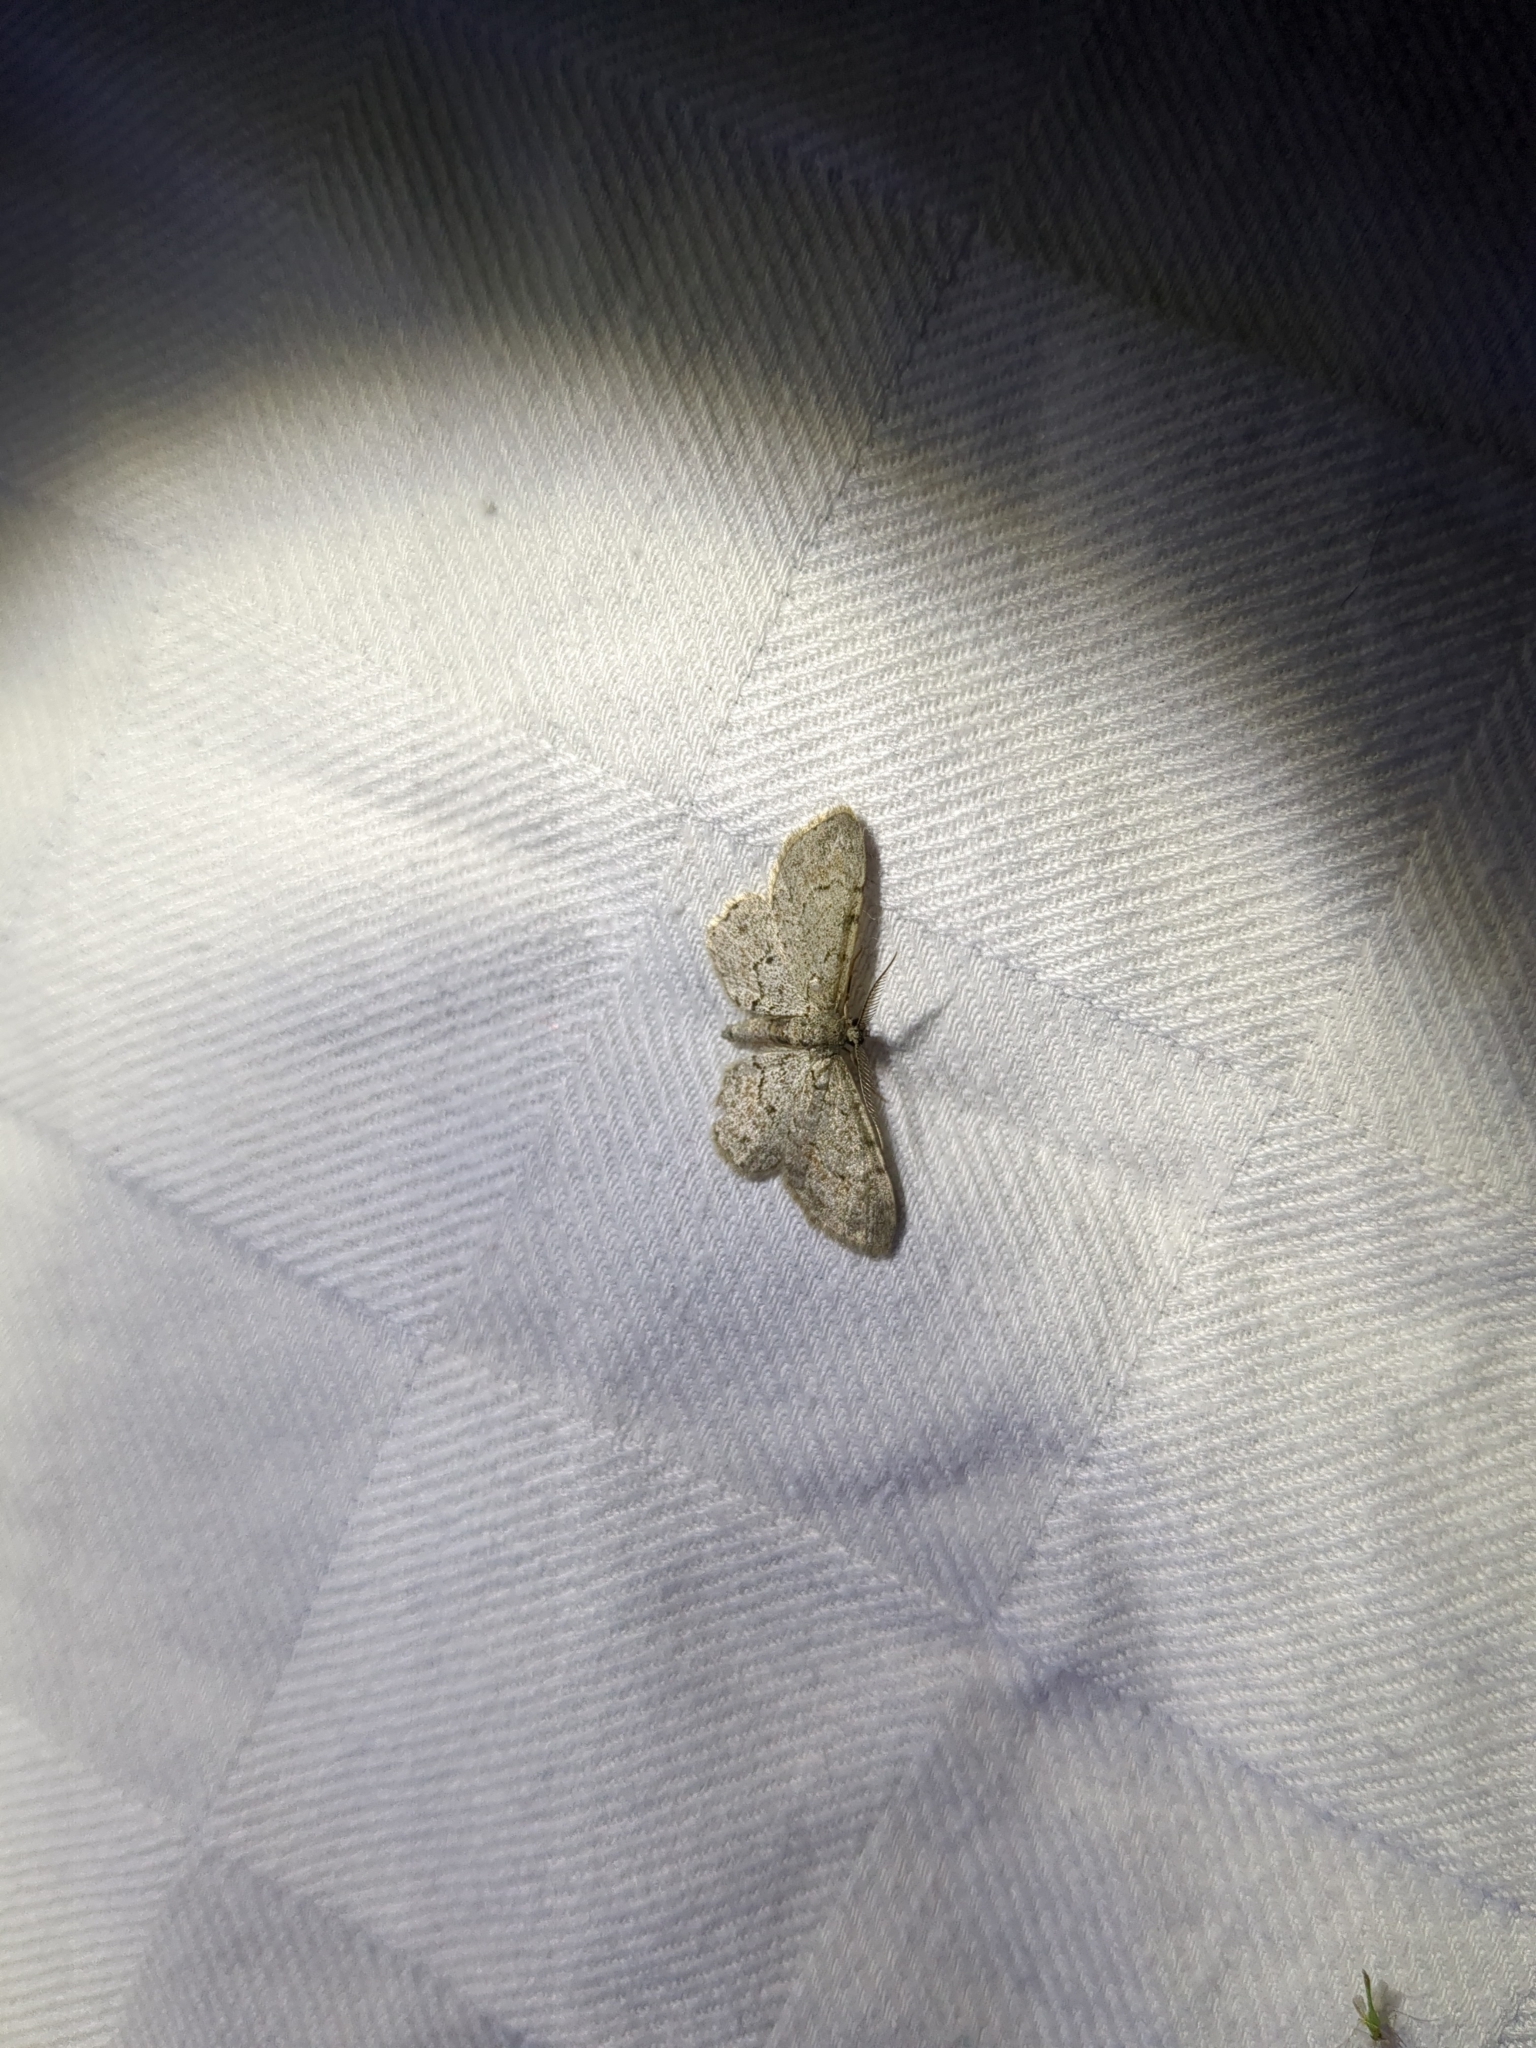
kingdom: Animalia
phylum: Arthropoda
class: Insecta
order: Lepidoptera
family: Geometridae
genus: Glenoides
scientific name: Glenoides texanaria
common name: Texas gray
